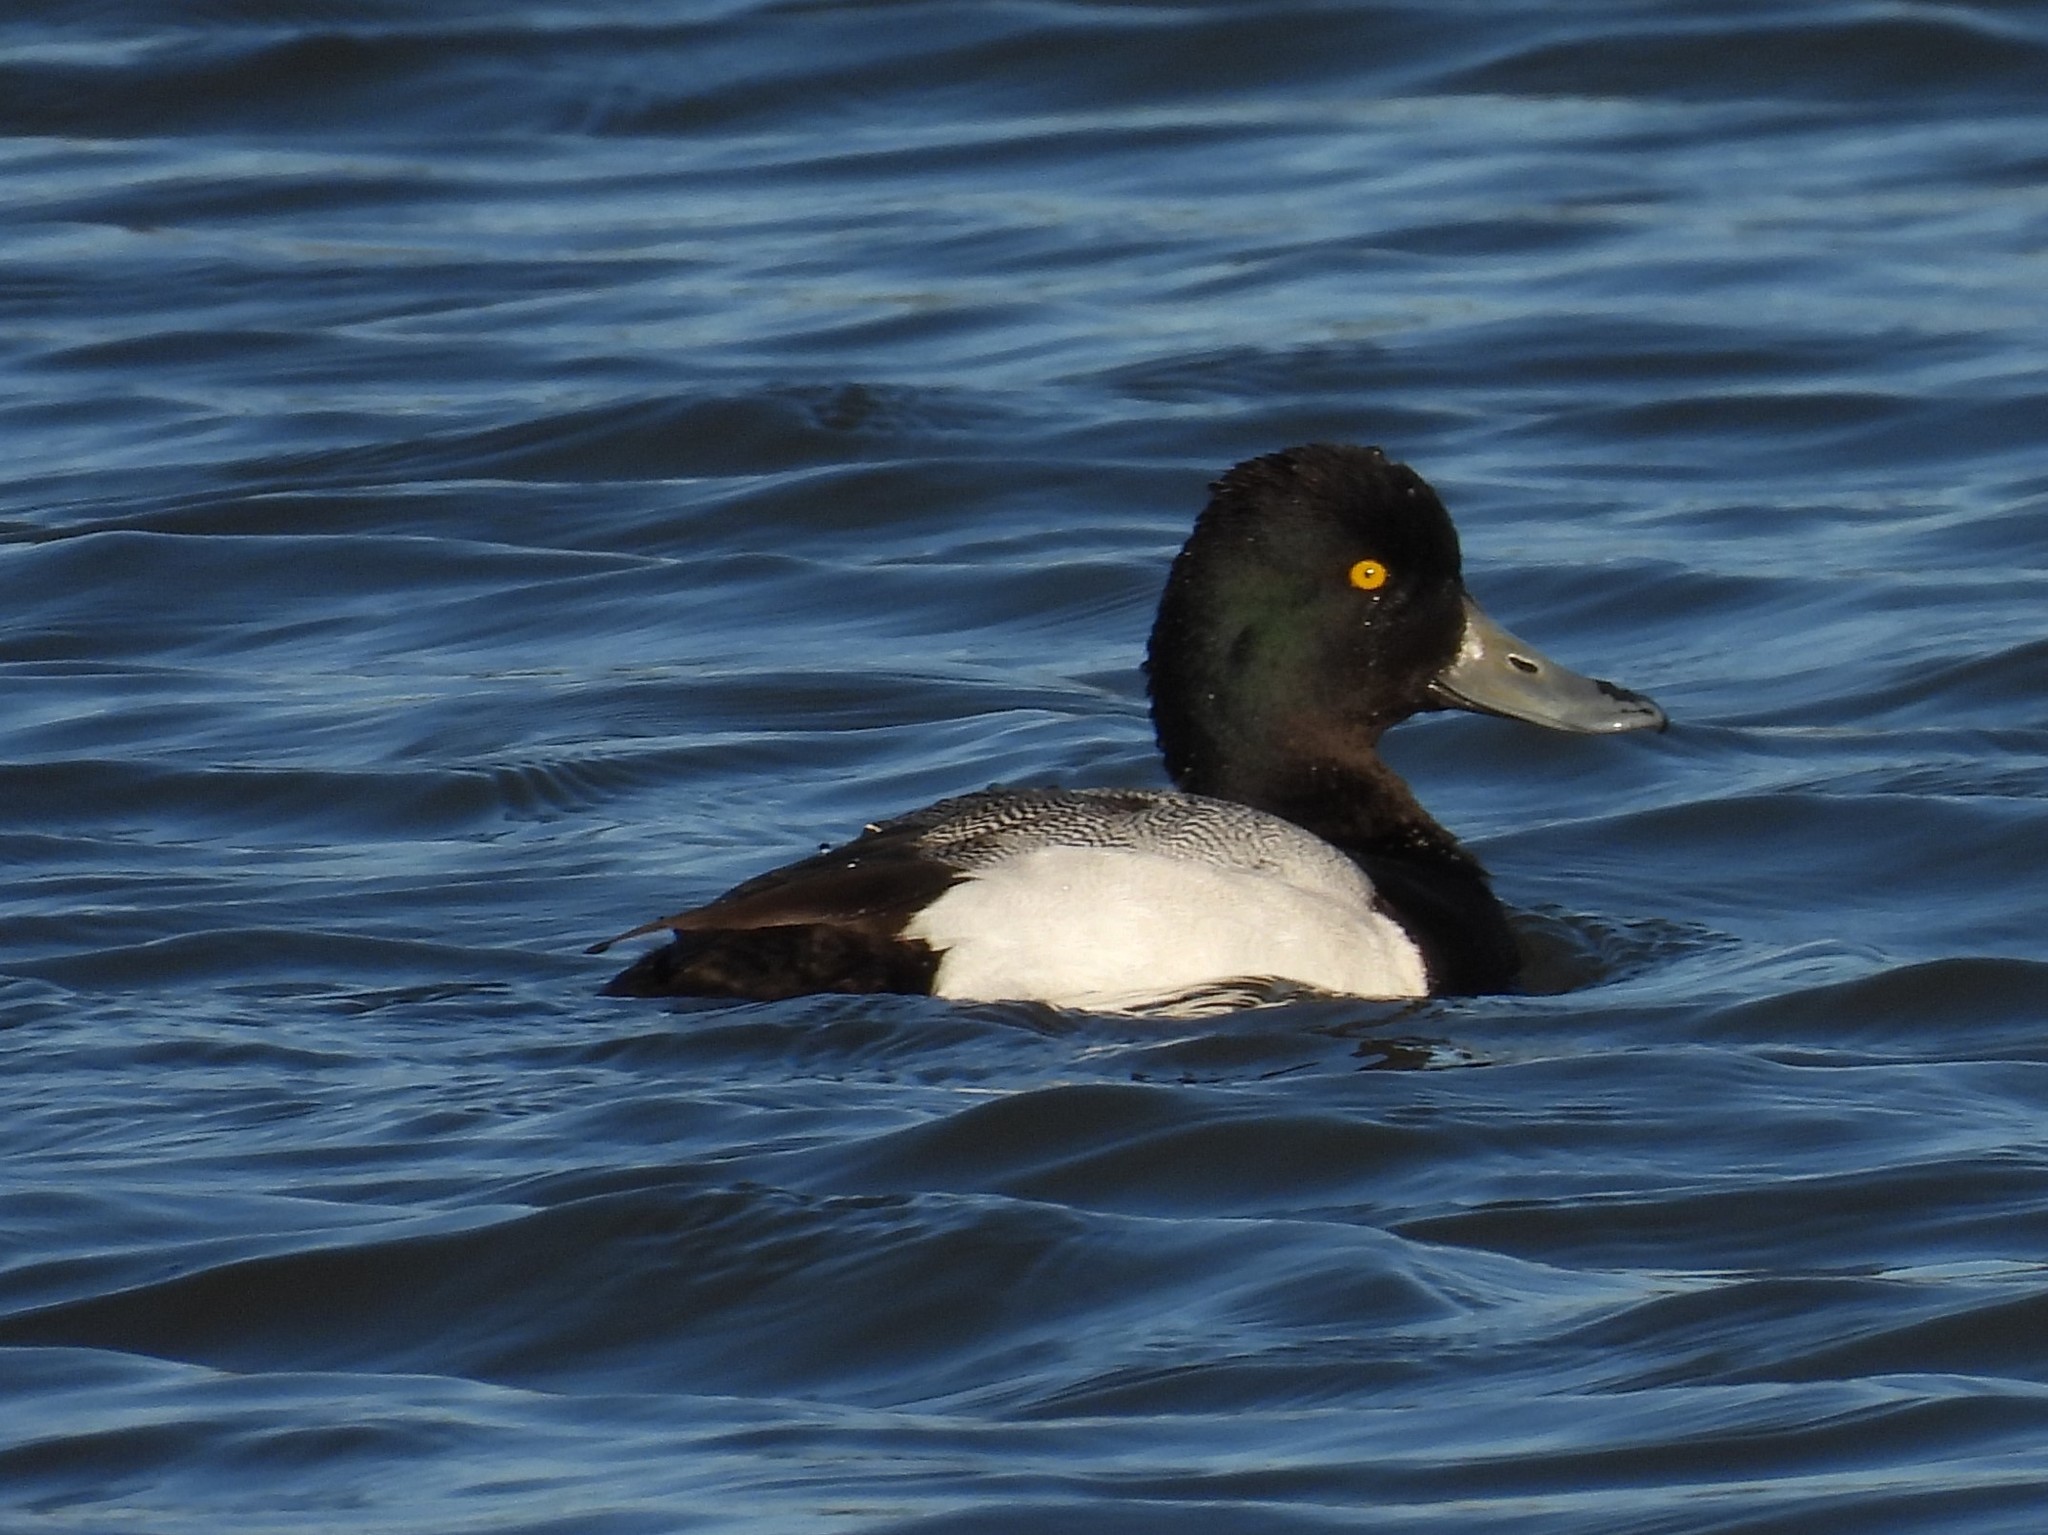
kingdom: Animalia
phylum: Chordata
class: Aves
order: Anseriformes
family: Anatidae
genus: Aythya
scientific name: Aythya affinis
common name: Lesser scaup
